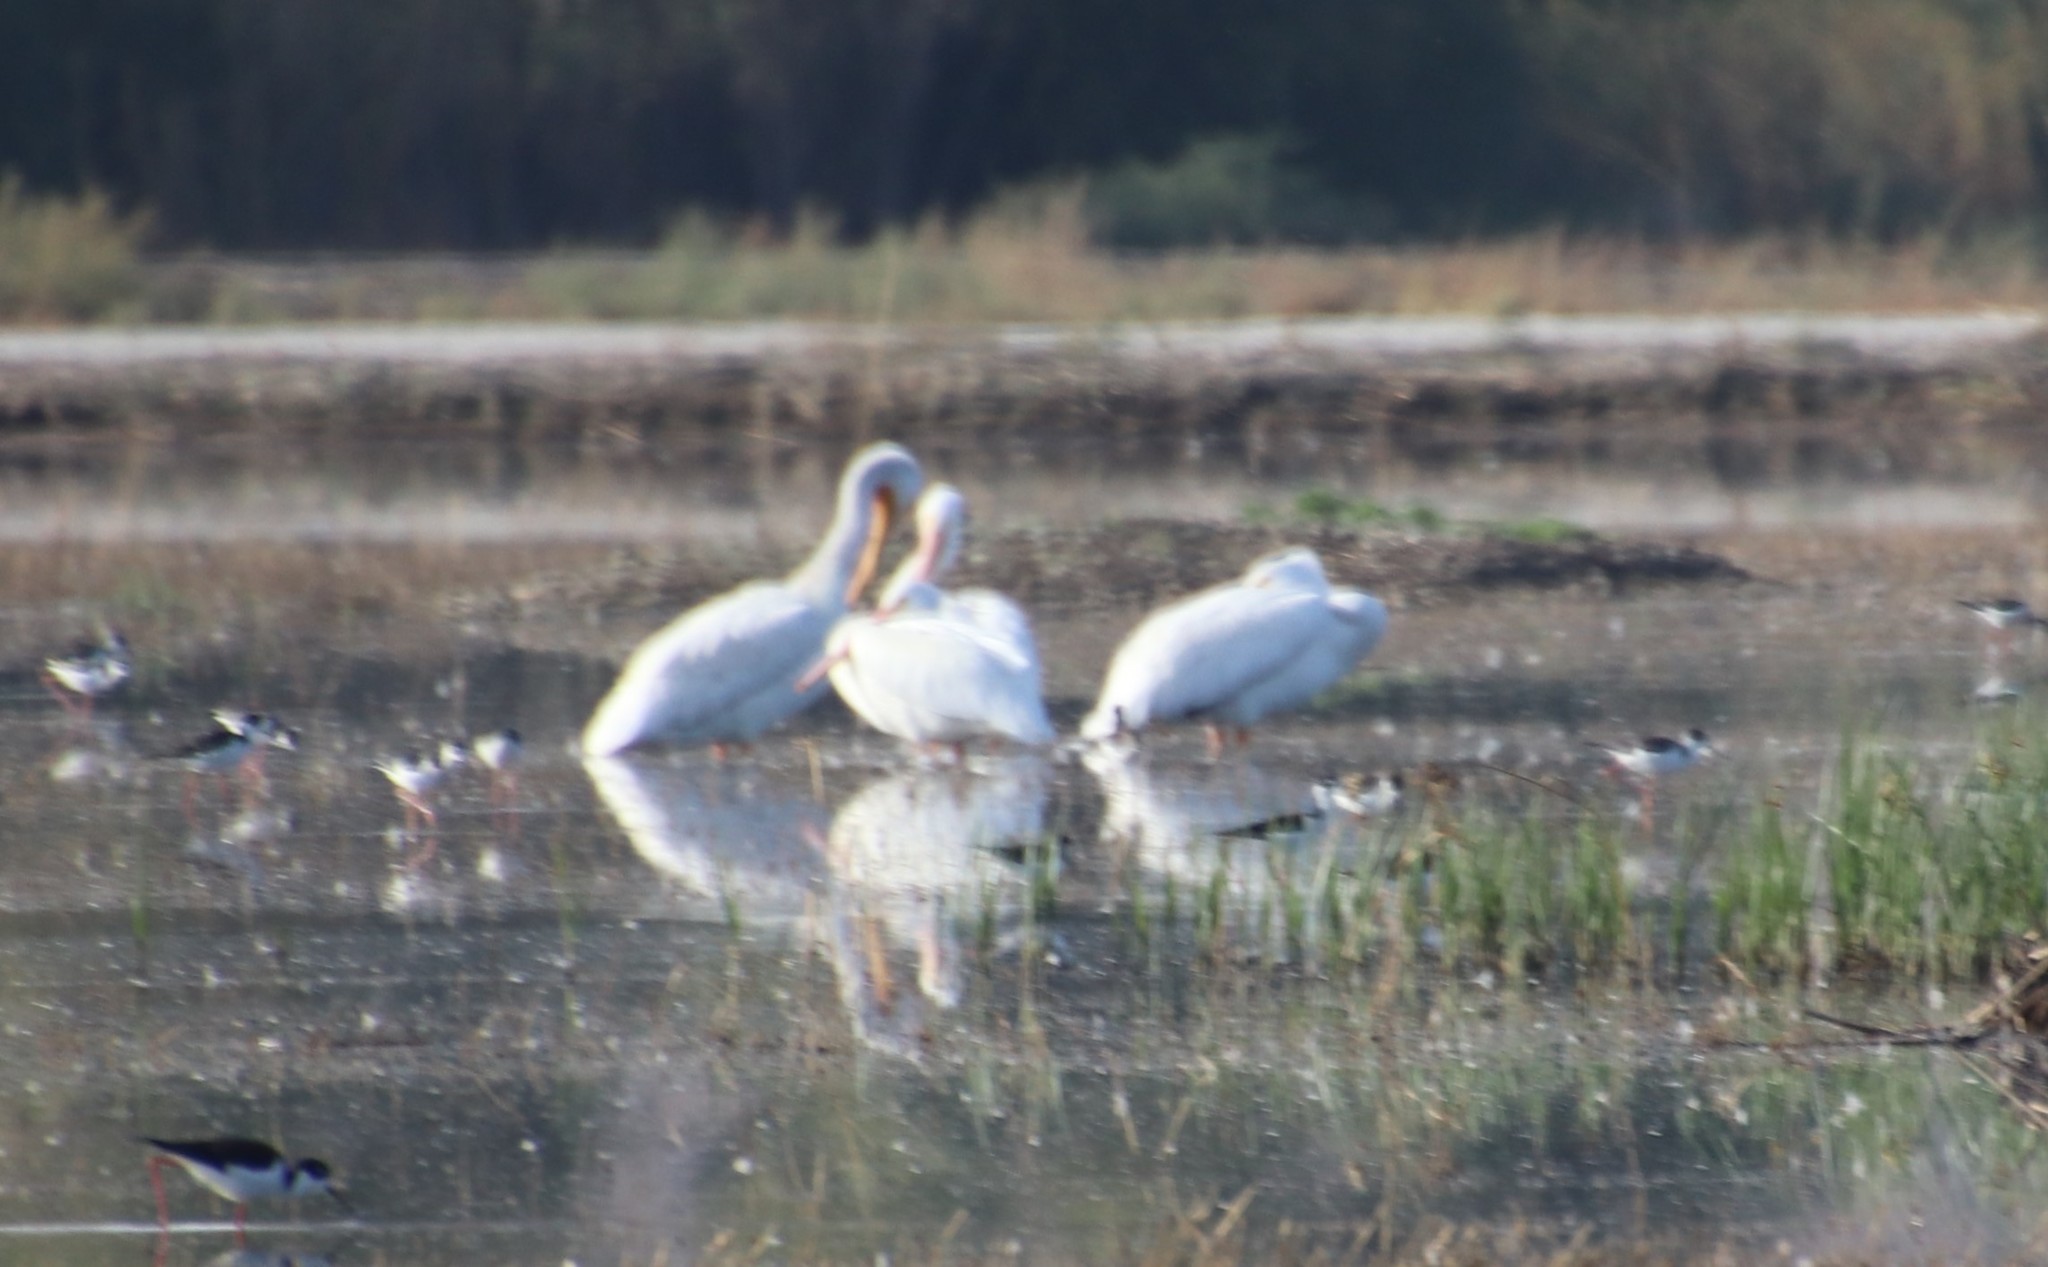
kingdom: Animalia
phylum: Chordata
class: Aves
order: Pelecaniformes
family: Pelecanidae
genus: Pelecanus
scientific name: Pelecanus erythrorhynchos
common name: American white pelican
